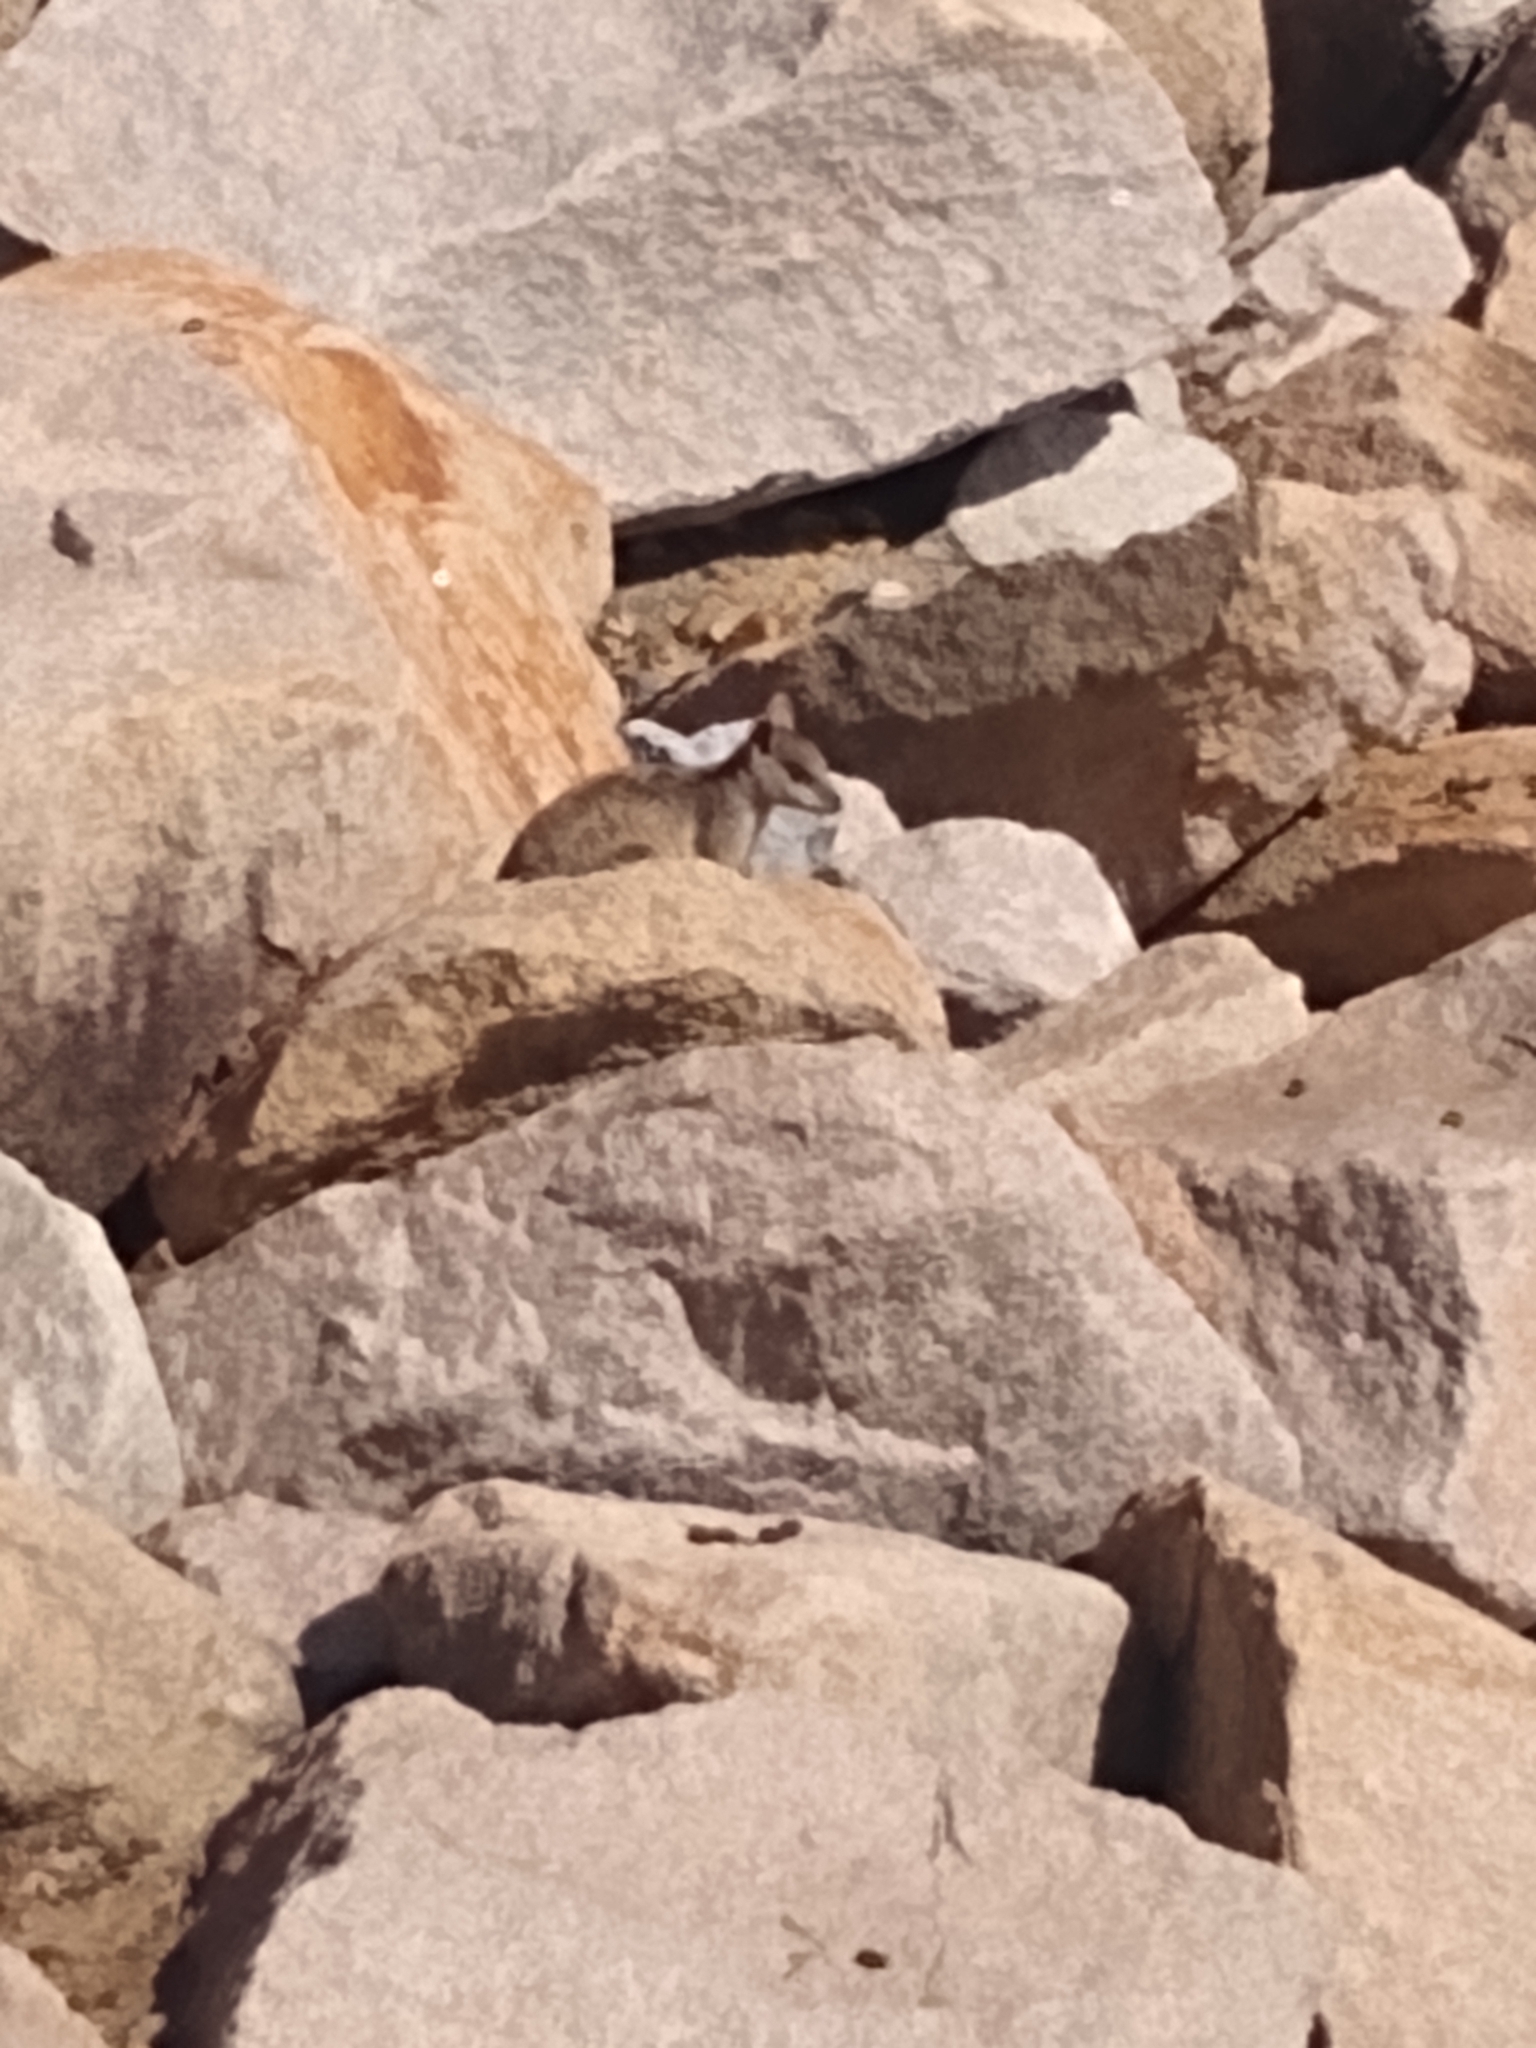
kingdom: Animalia
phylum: Chordata
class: Mammalia
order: Diprotodontia
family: Macropodidae
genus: Petrogale
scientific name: Petrogale assimilis
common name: Allied rock wallaby
